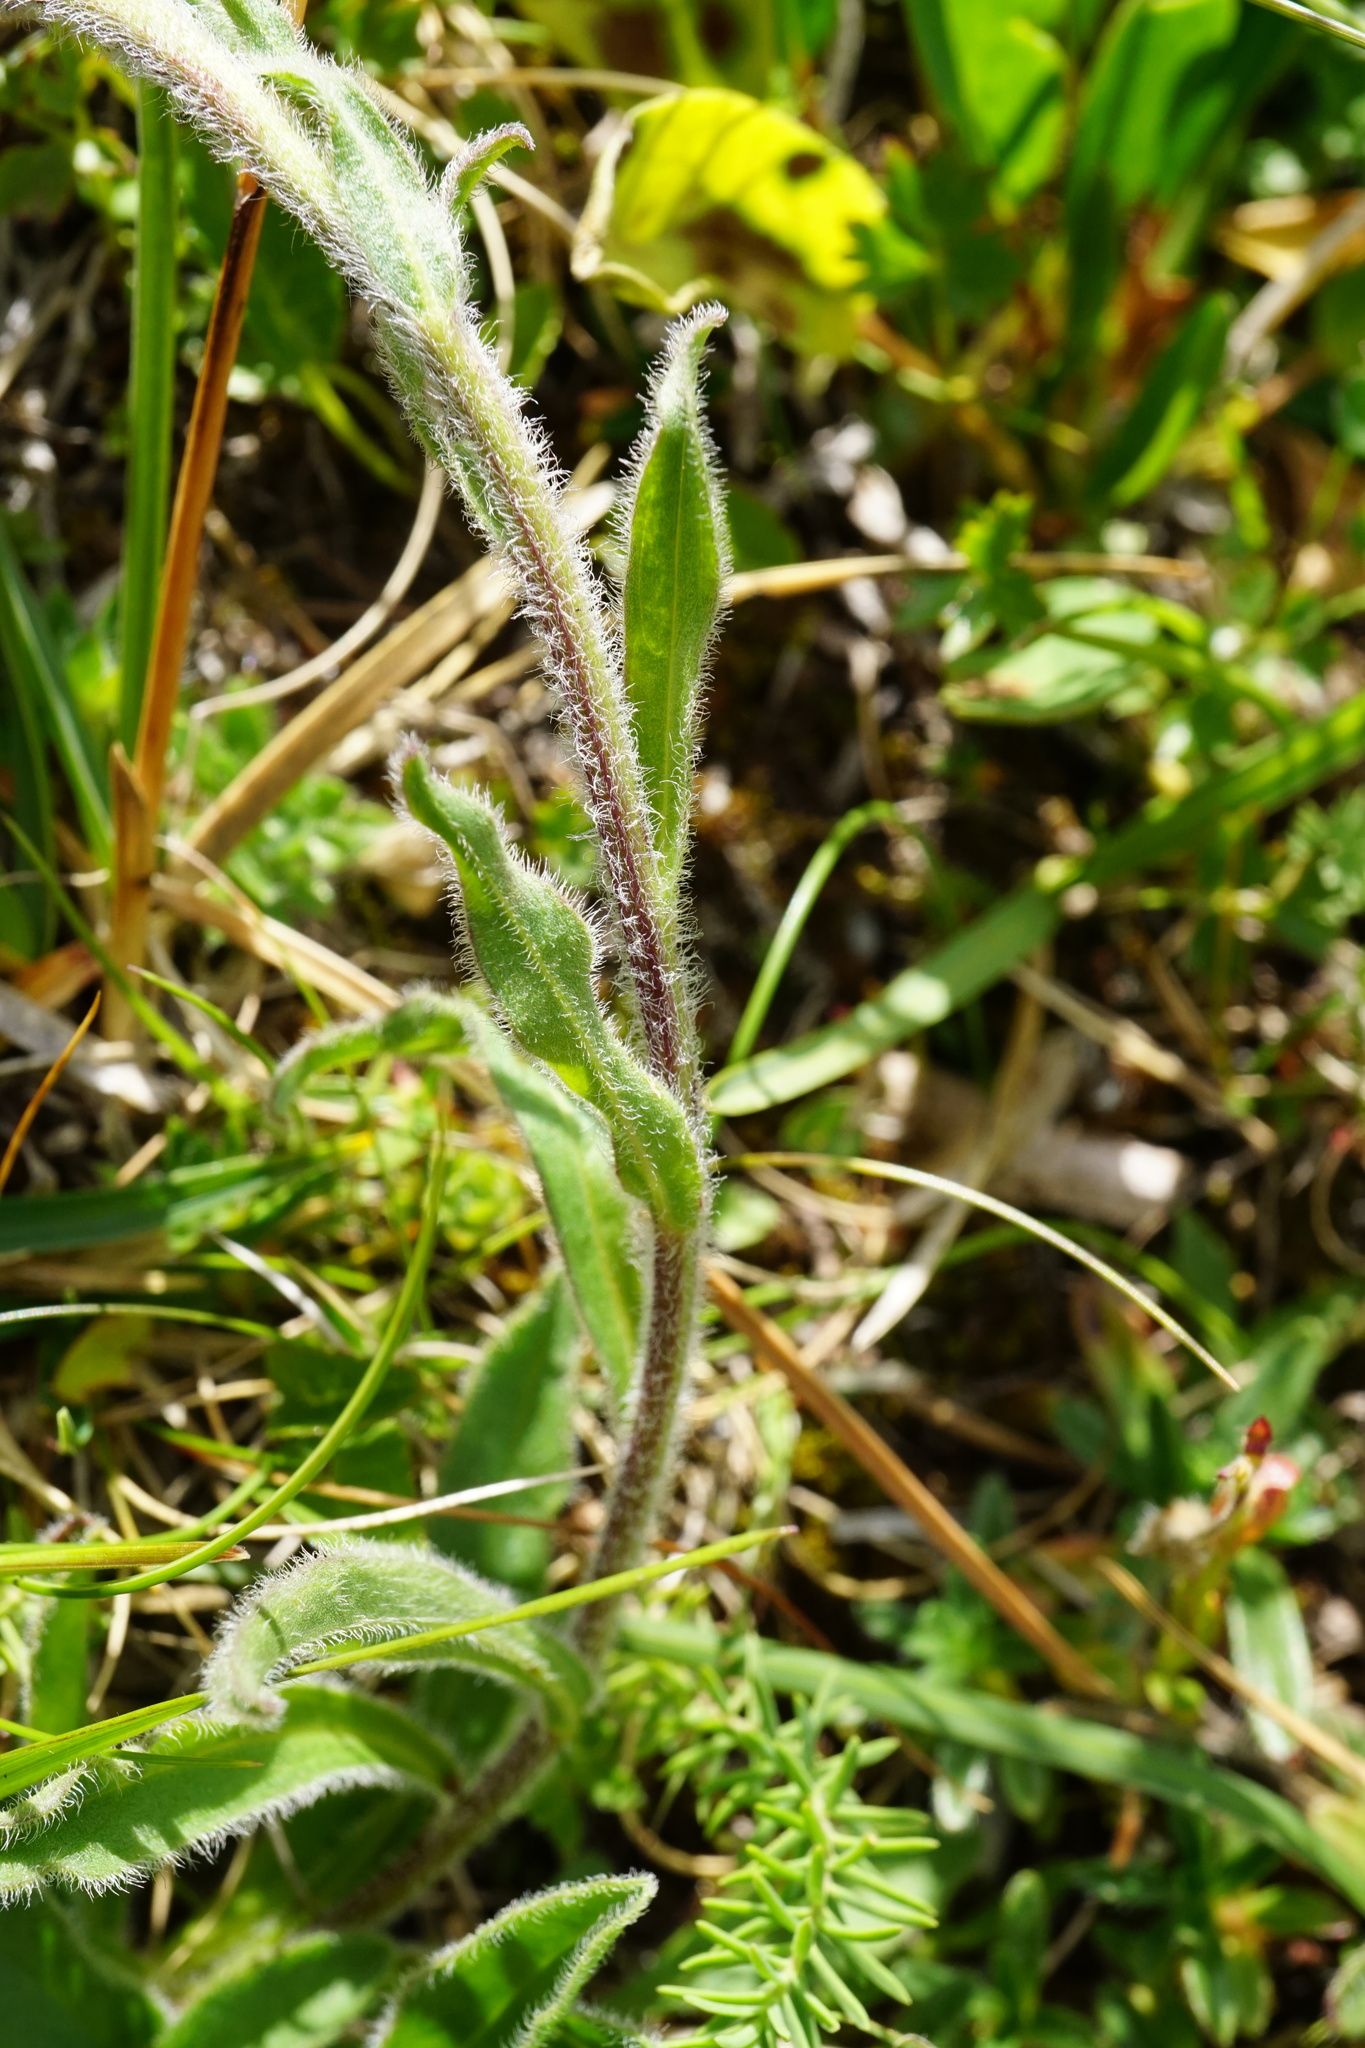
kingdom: Plantae
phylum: Tracheophyta
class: Magnoliopsida
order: Asterales
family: Asteraceae
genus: Aster
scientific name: Aster alpinus
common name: Alpine aster
